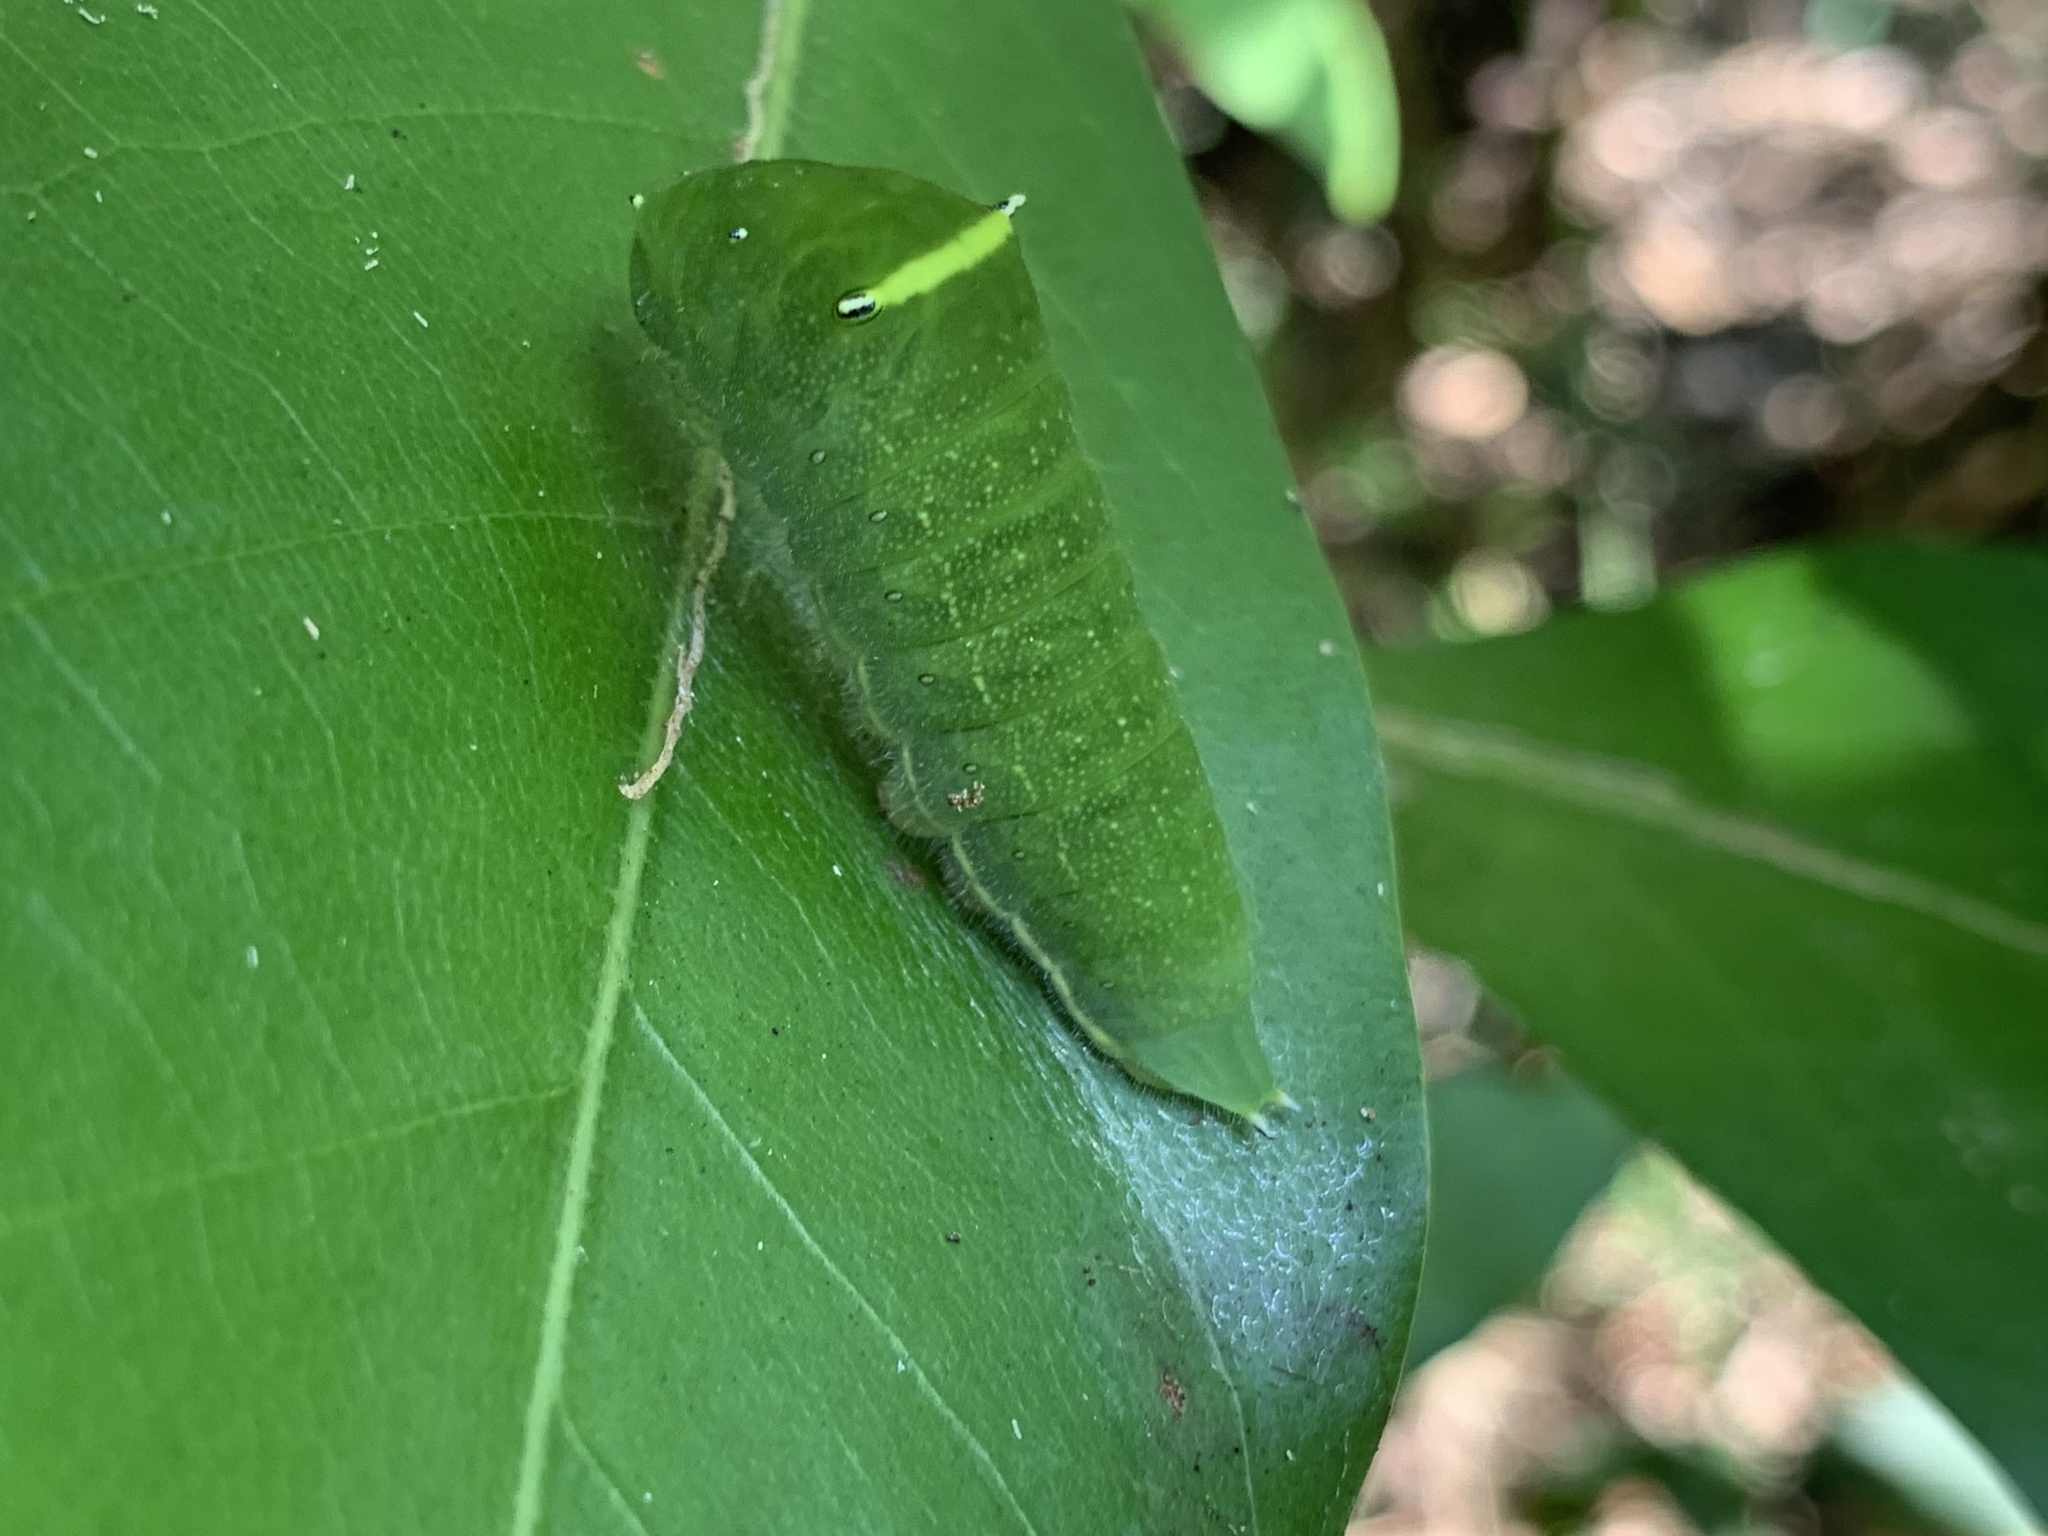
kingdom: Fungi
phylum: Ascomycota
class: Sordariomycetes
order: Microascales
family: Microascaceae
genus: Graphium
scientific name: Graphium sarpedon
